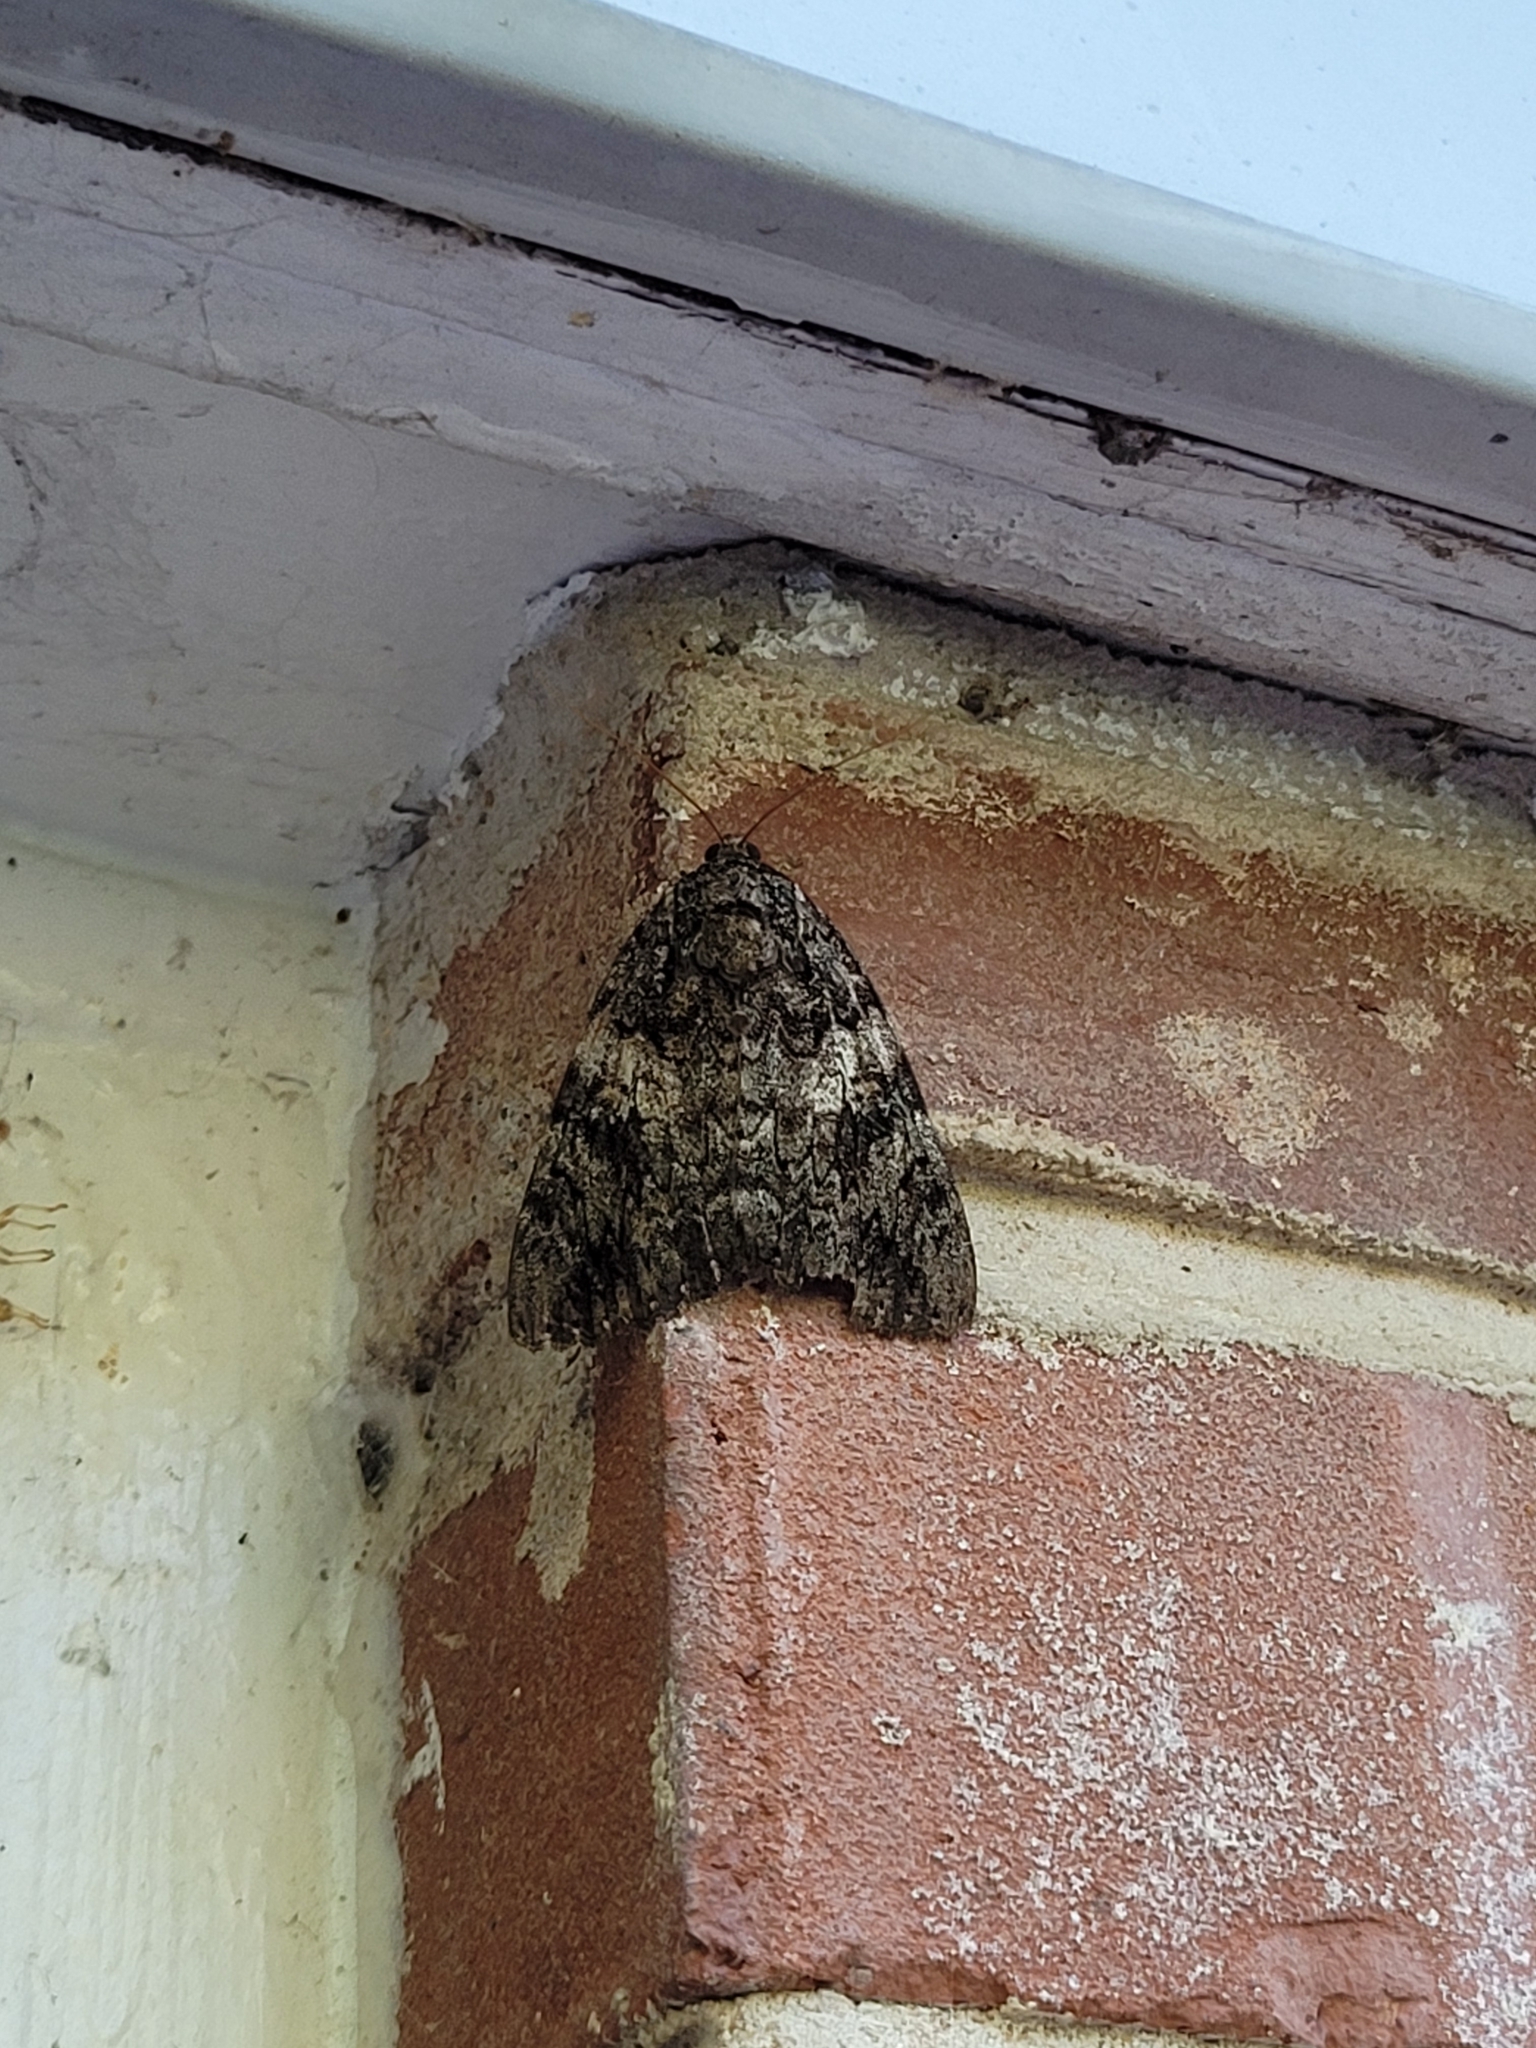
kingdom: Animalia
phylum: Arthropoda
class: Insecta
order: Lepidoptera
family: Erebidae
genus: Catocala
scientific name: Catocala ilia
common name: Ilia underwing
